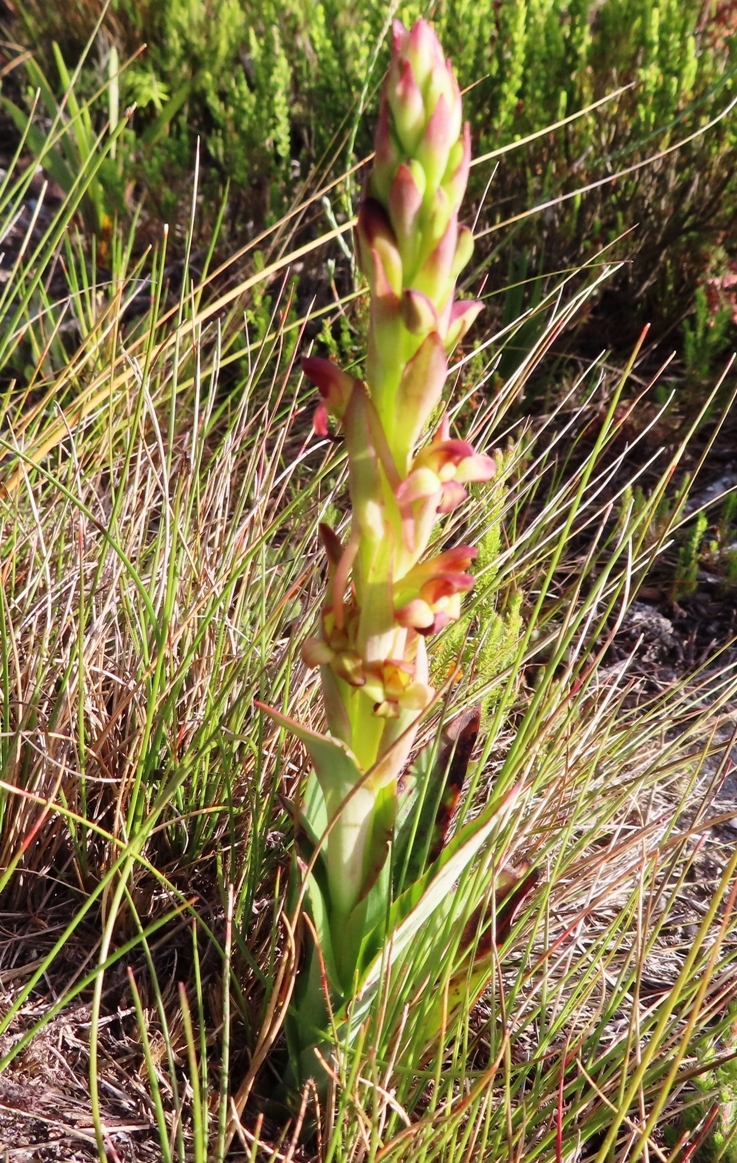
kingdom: Plantae
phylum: Tracheophyta
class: Liliopsida
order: Asparagales
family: Orchidaceae
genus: Disa
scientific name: Disa bolusiana
